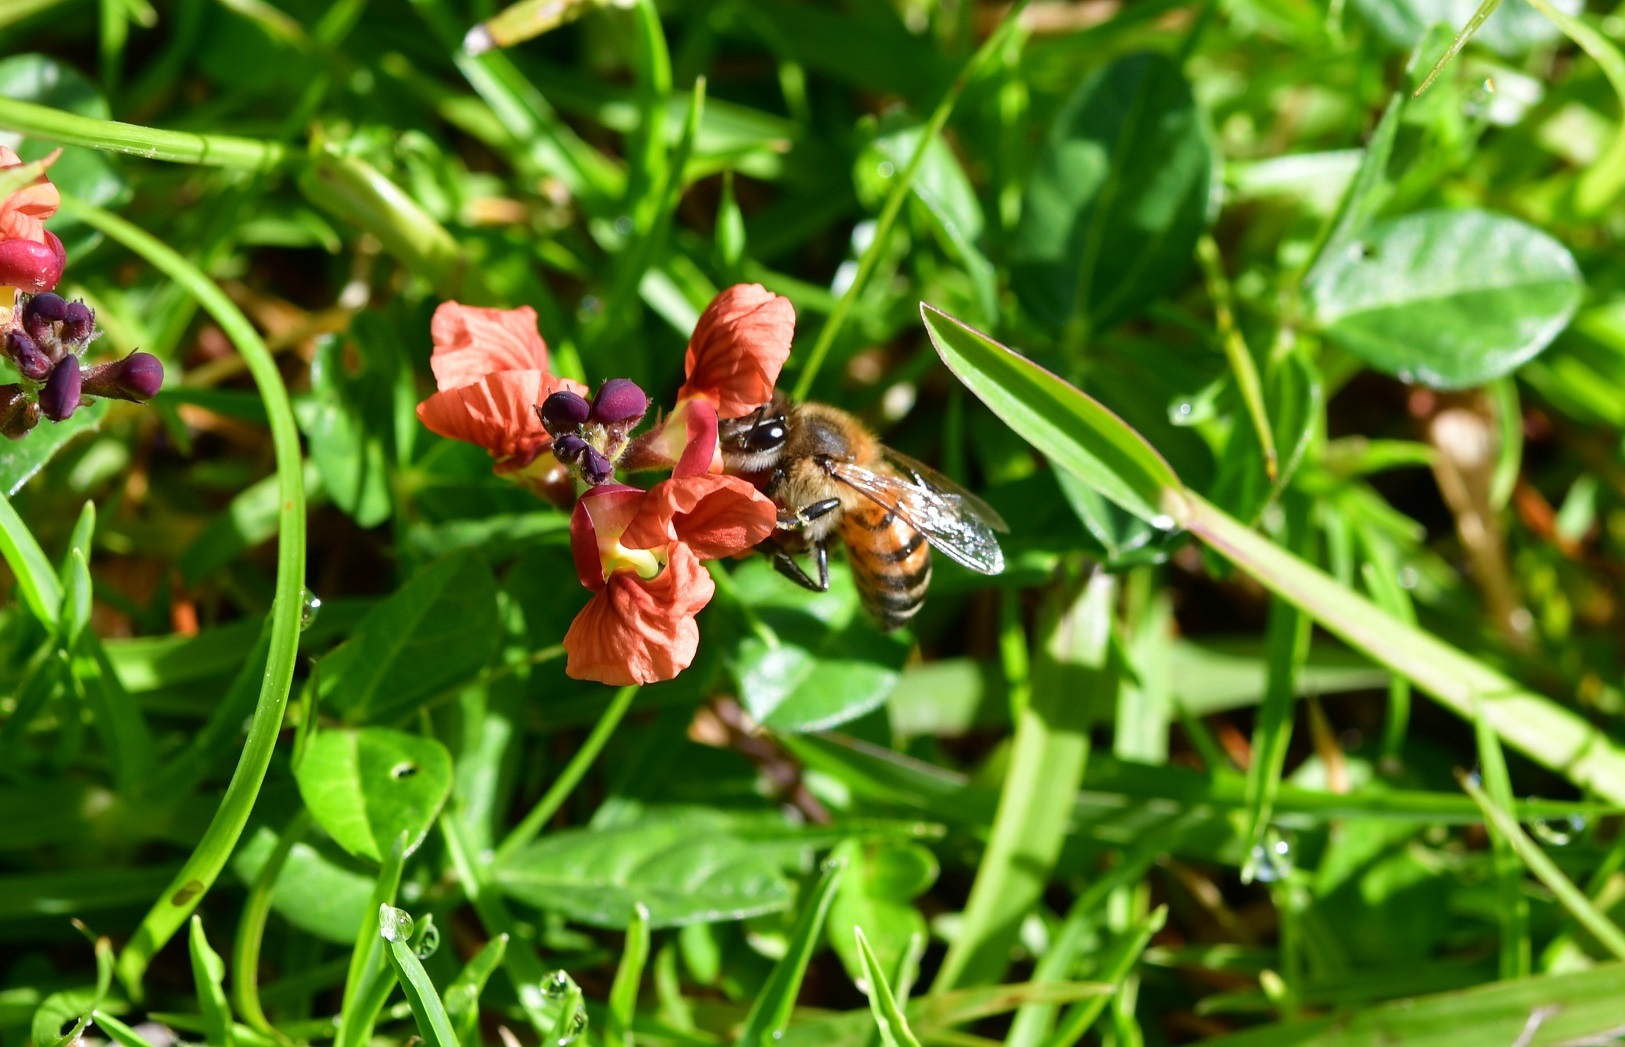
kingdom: Animalia
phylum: Arthropoda
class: Insecta
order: Hymenoptera
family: Apidae
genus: Apis
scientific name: Apis mellifera
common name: Honey bee
